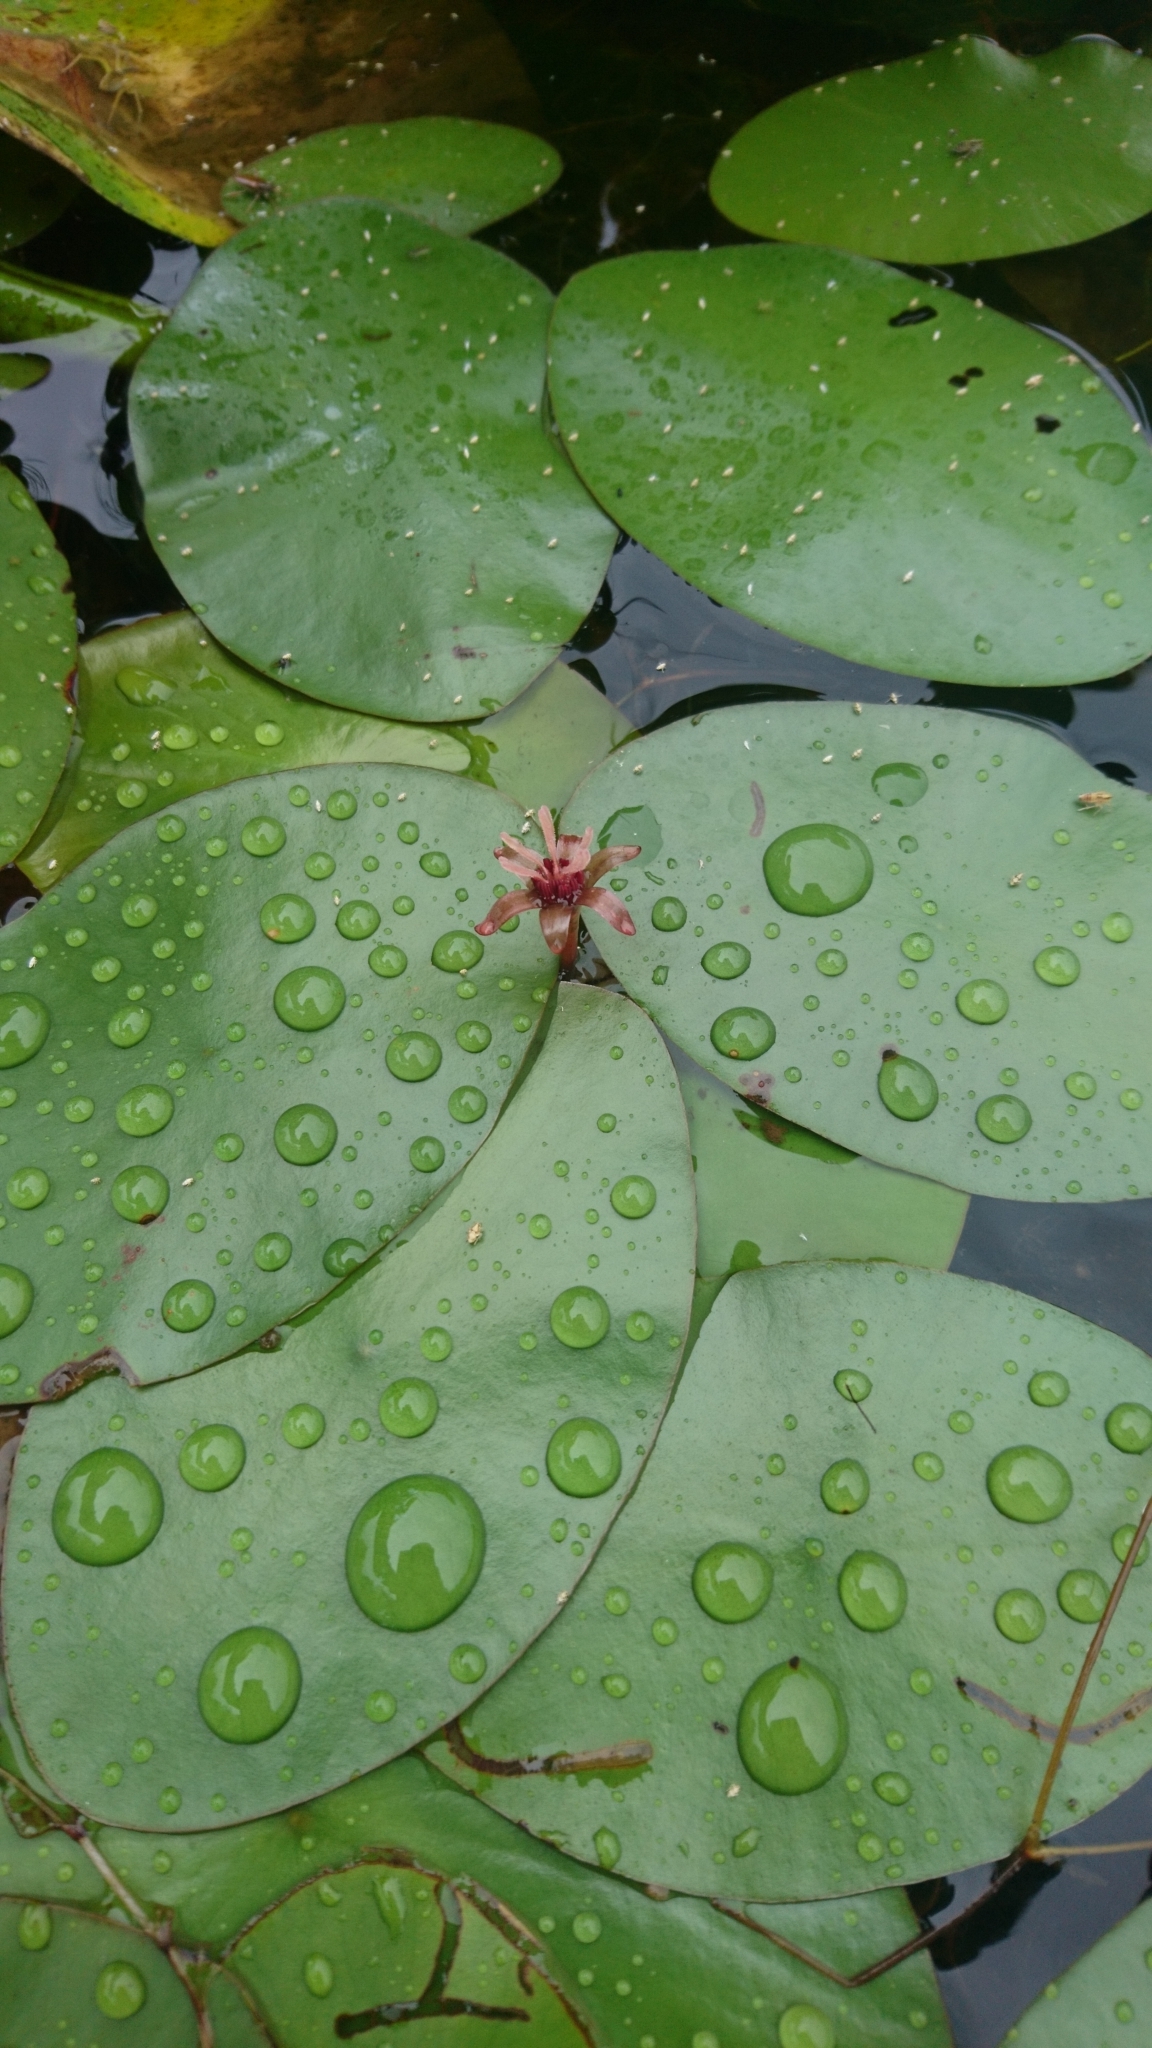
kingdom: Plantae
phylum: Tracheophyta
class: Magnoliopsida
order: Nymphaeales
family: Cabombaceae
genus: Brasenia
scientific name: Brasenia schreberi
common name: Water-shield
